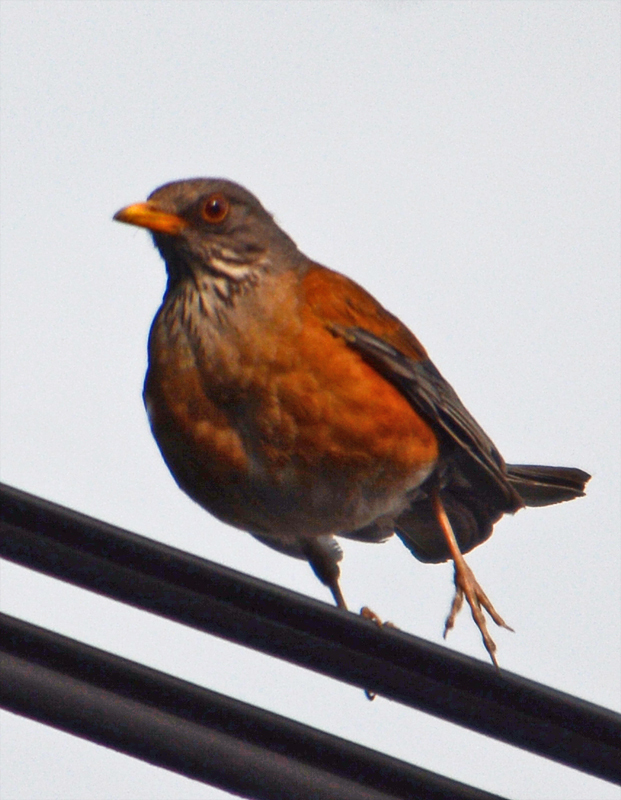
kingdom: Animalia
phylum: Chordata
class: Aves
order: Passeriformes
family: Turdidae
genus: Turdus
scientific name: Turdus rufopalliatus
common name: Rufous-backed robin
